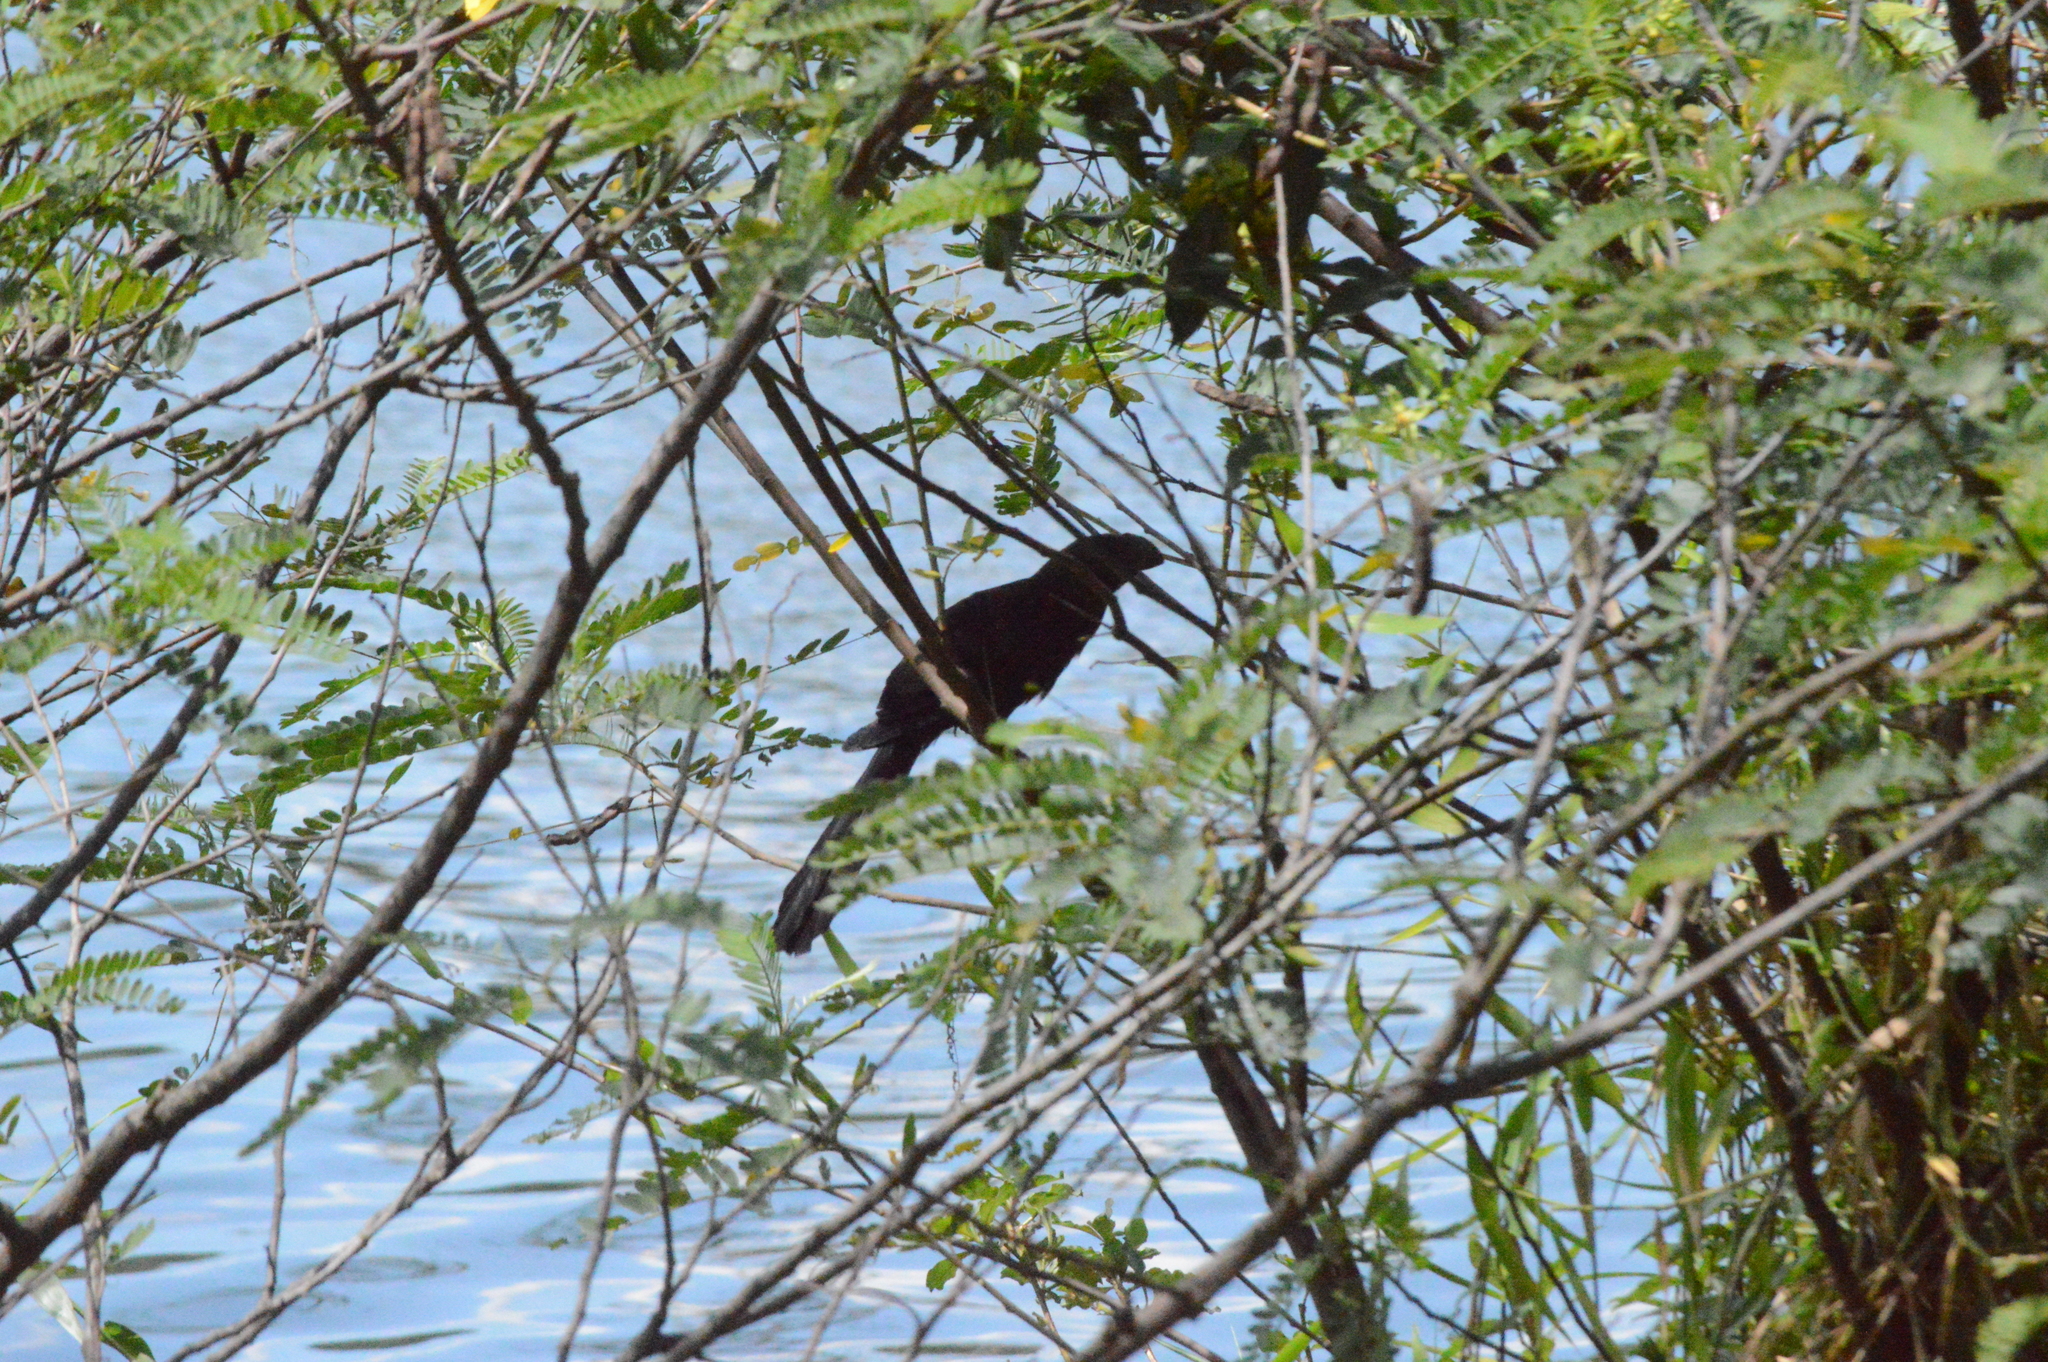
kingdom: Animalia
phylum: Chordata
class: Aves
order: Cuculiformes
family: Cuculidae
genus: Crotophaga
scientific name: Crotophaga ani
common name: Smooth-billed ani
